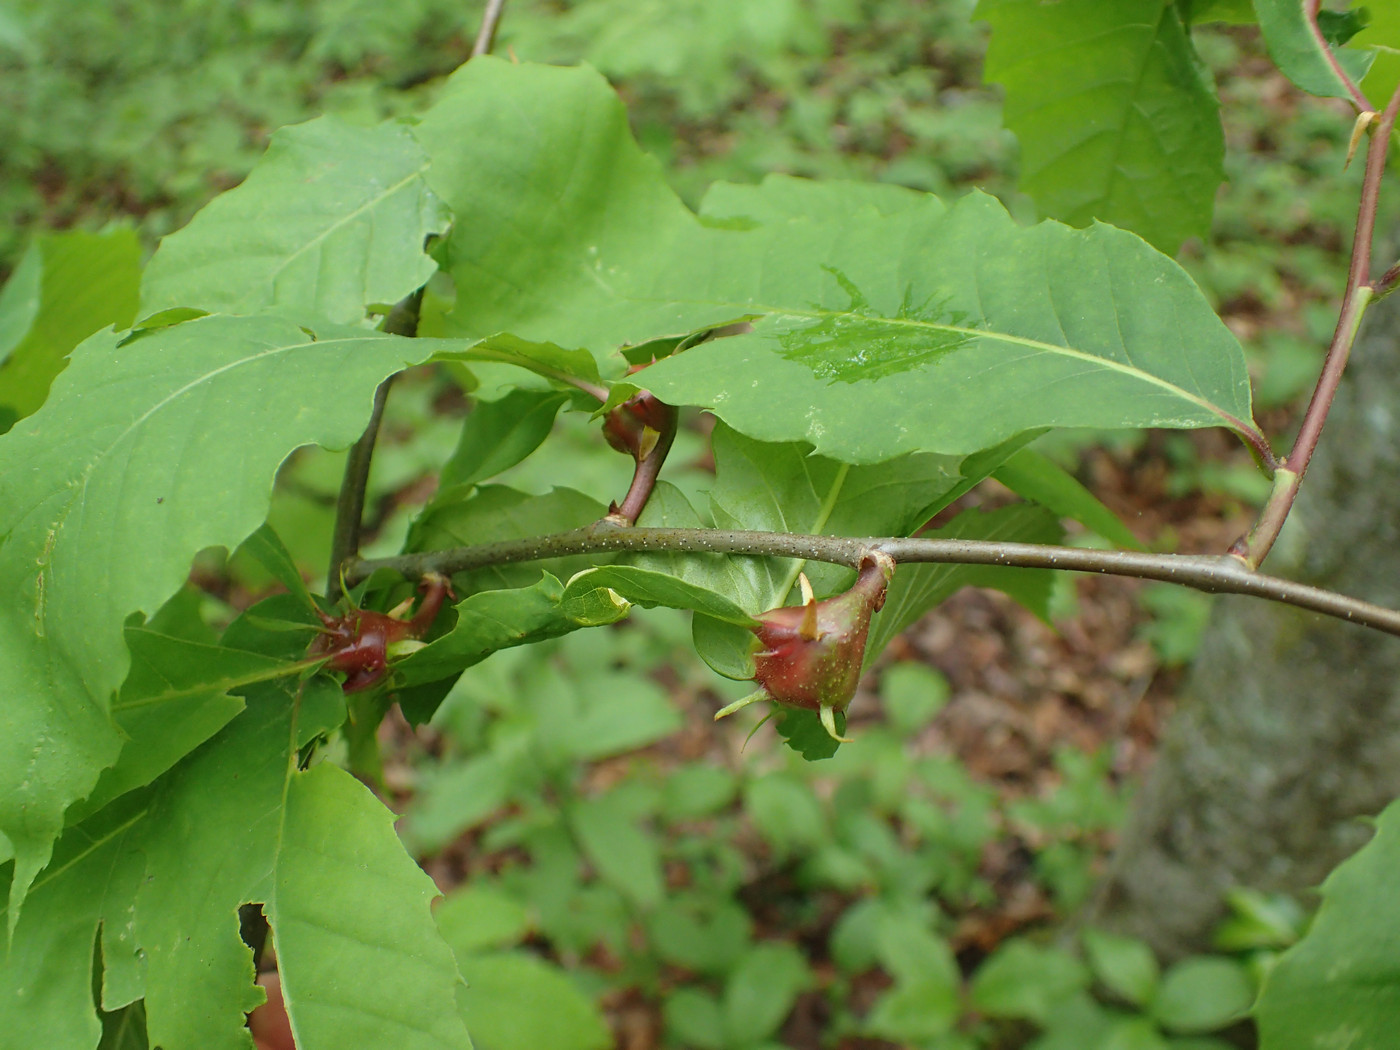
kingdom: Animalia
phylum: Arthropoda
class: Insecta
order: Hymenoptera
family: Cynipidae
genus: Dryocosmus
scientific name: Dryocosmus kuriphilus
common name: Asian chestnut gall wasp
